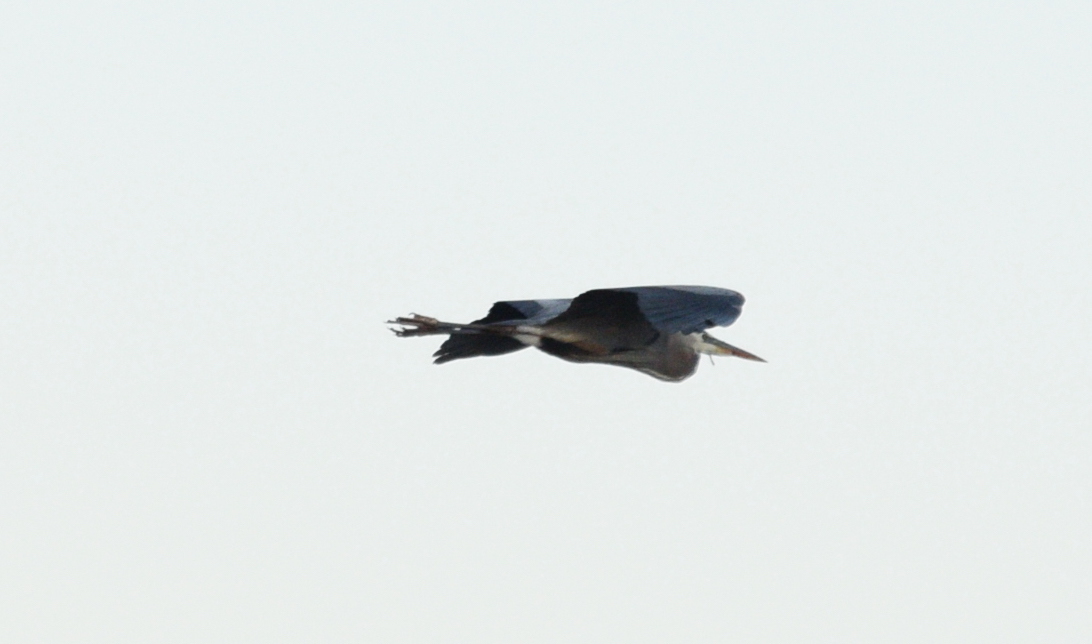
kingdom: Animalia
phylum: Chordata
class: Aves
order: Pelecaniformes
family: Ardeidae
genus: Ardea
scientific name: Ardea herodias
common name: Great blue heron
